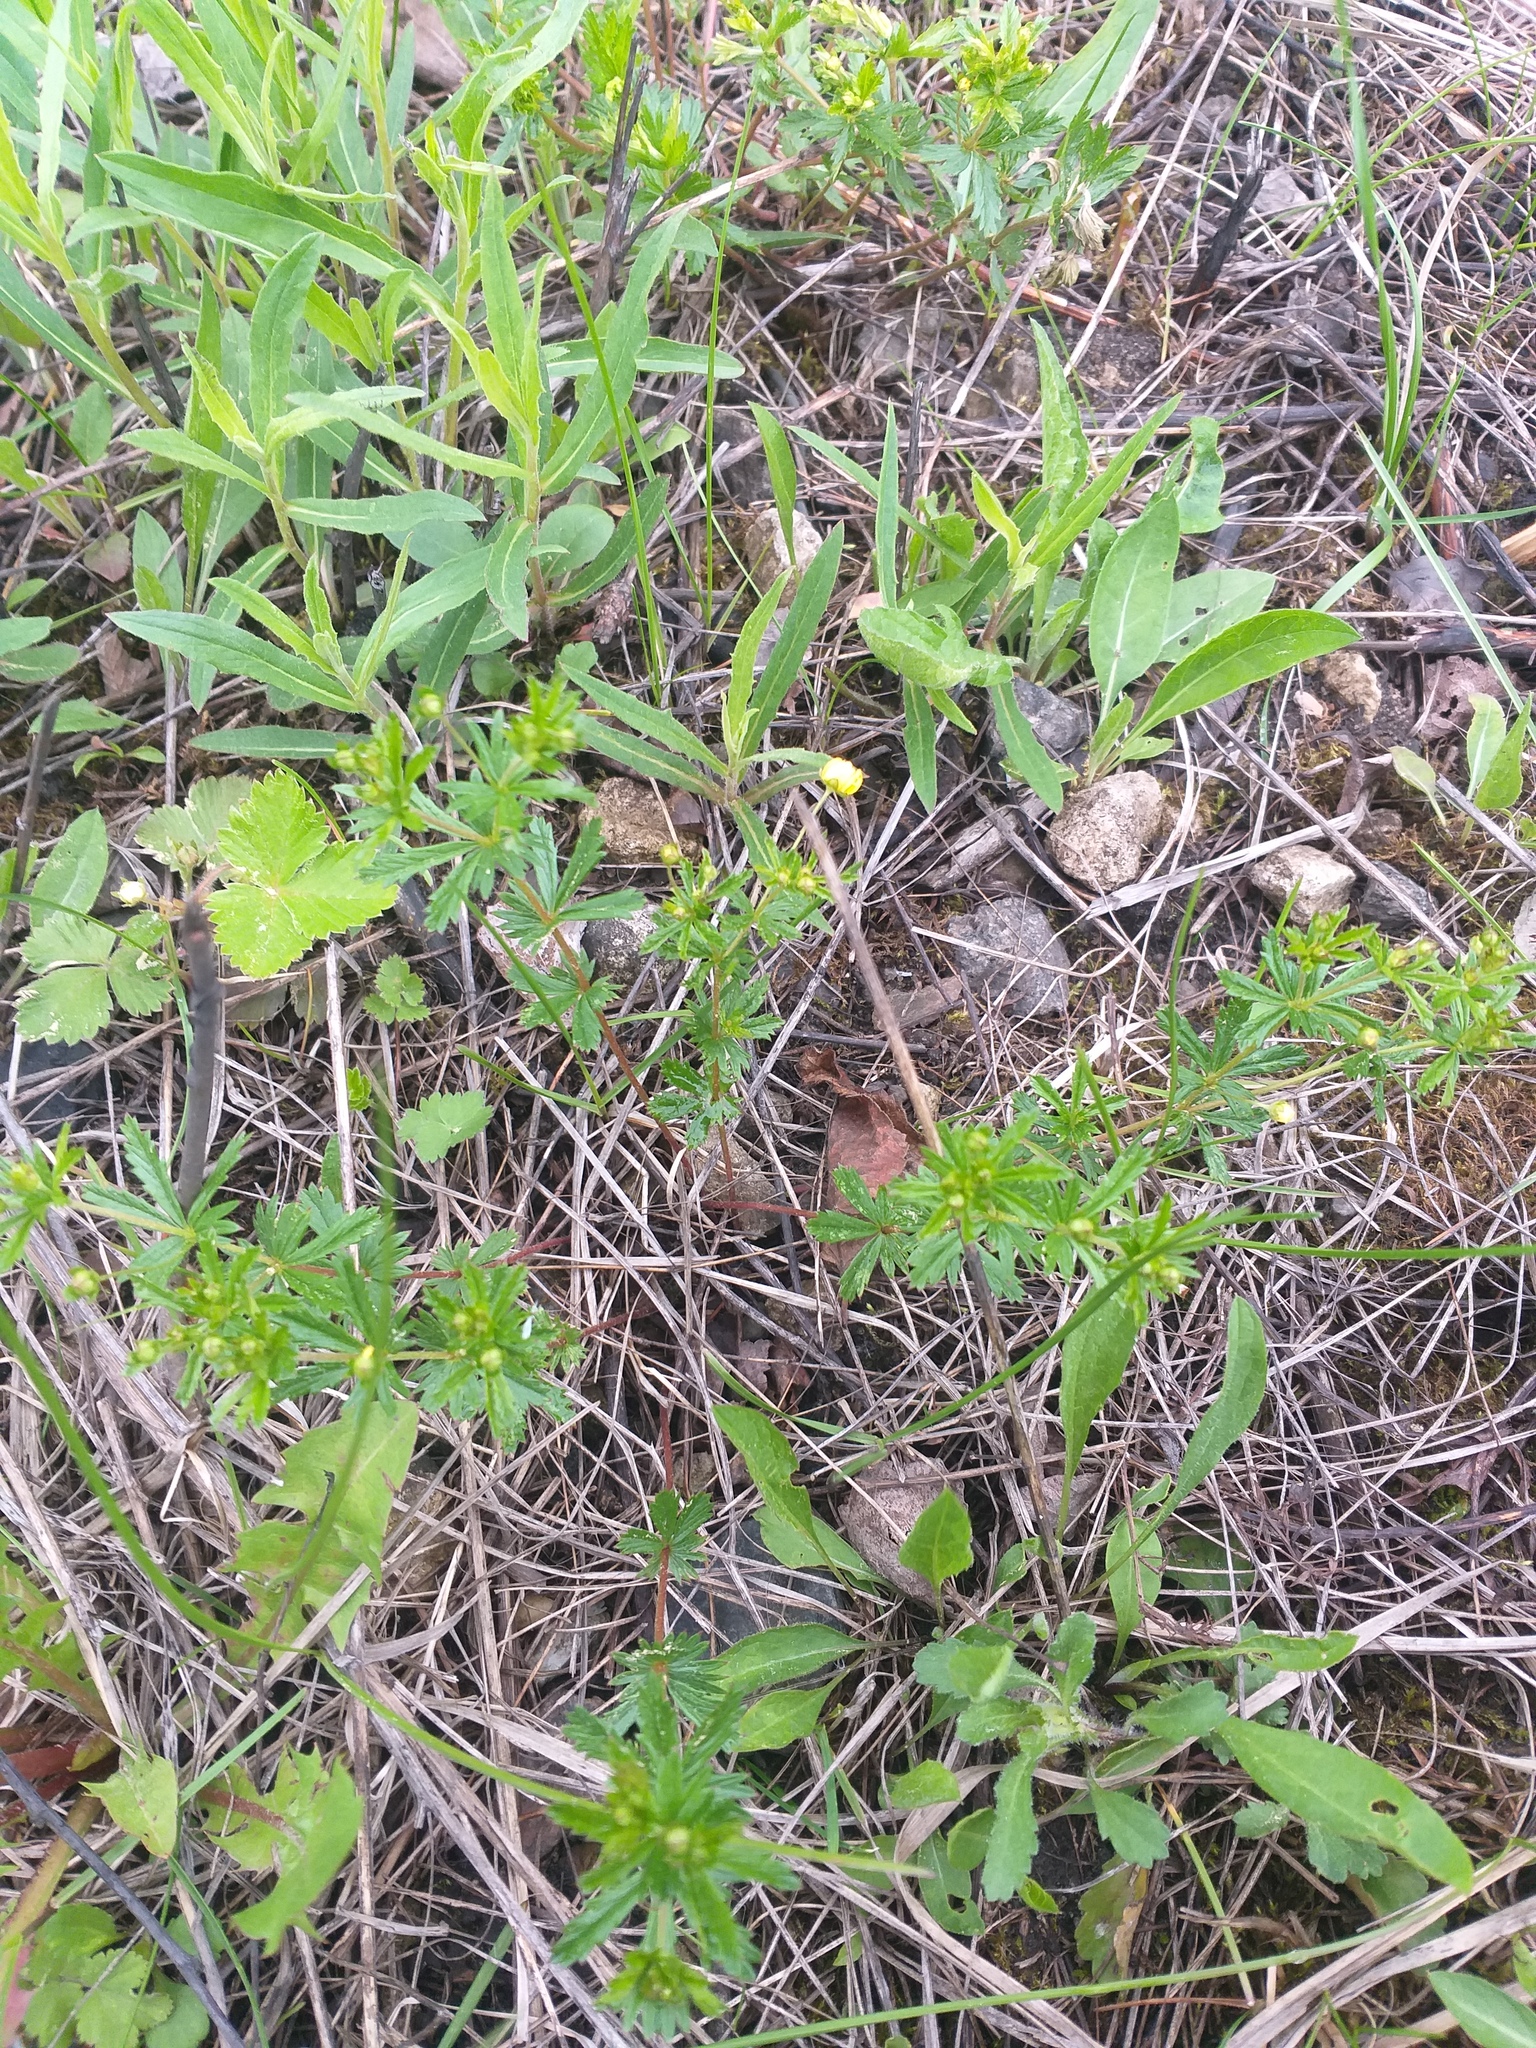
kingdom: Plantae
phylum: Tracheophyta
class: Magnoliopsida
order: Rosales
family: Rosaceae
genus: Potentilla
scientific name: Potentilla erecta
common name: Tormentil
